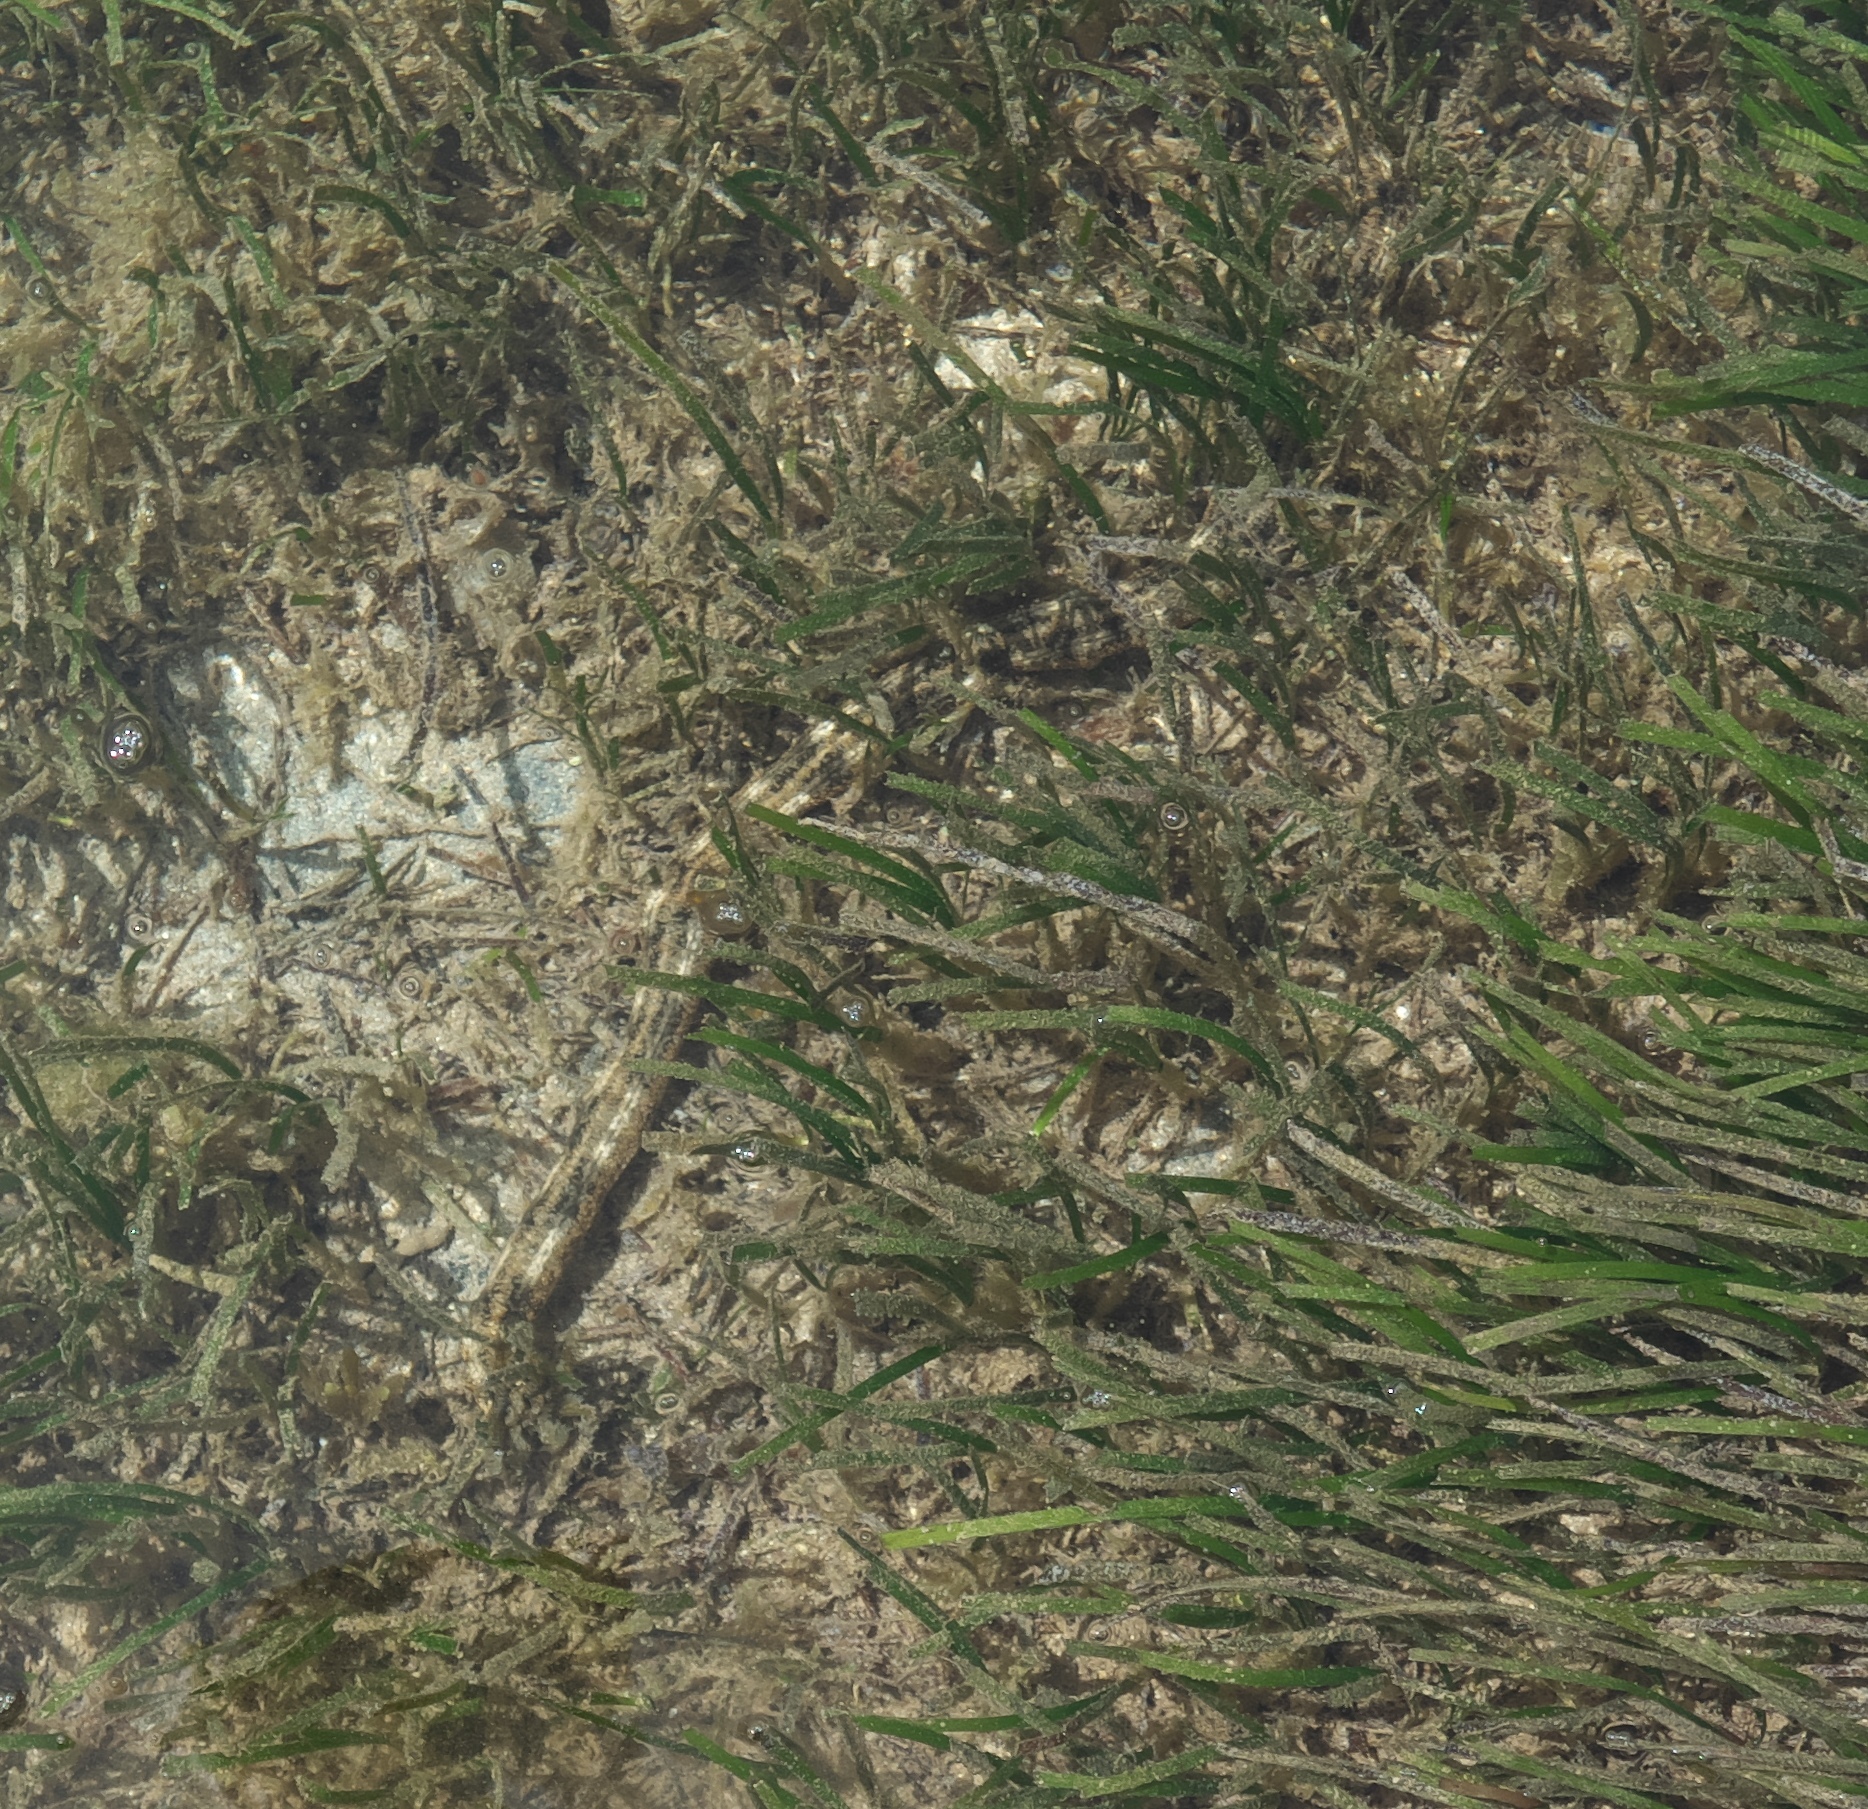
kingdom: Animalia
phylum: Echinodermata
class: Holothuroidea
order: Apodida
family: Synaptidae
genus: Synapta
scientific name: Synapta maculata
